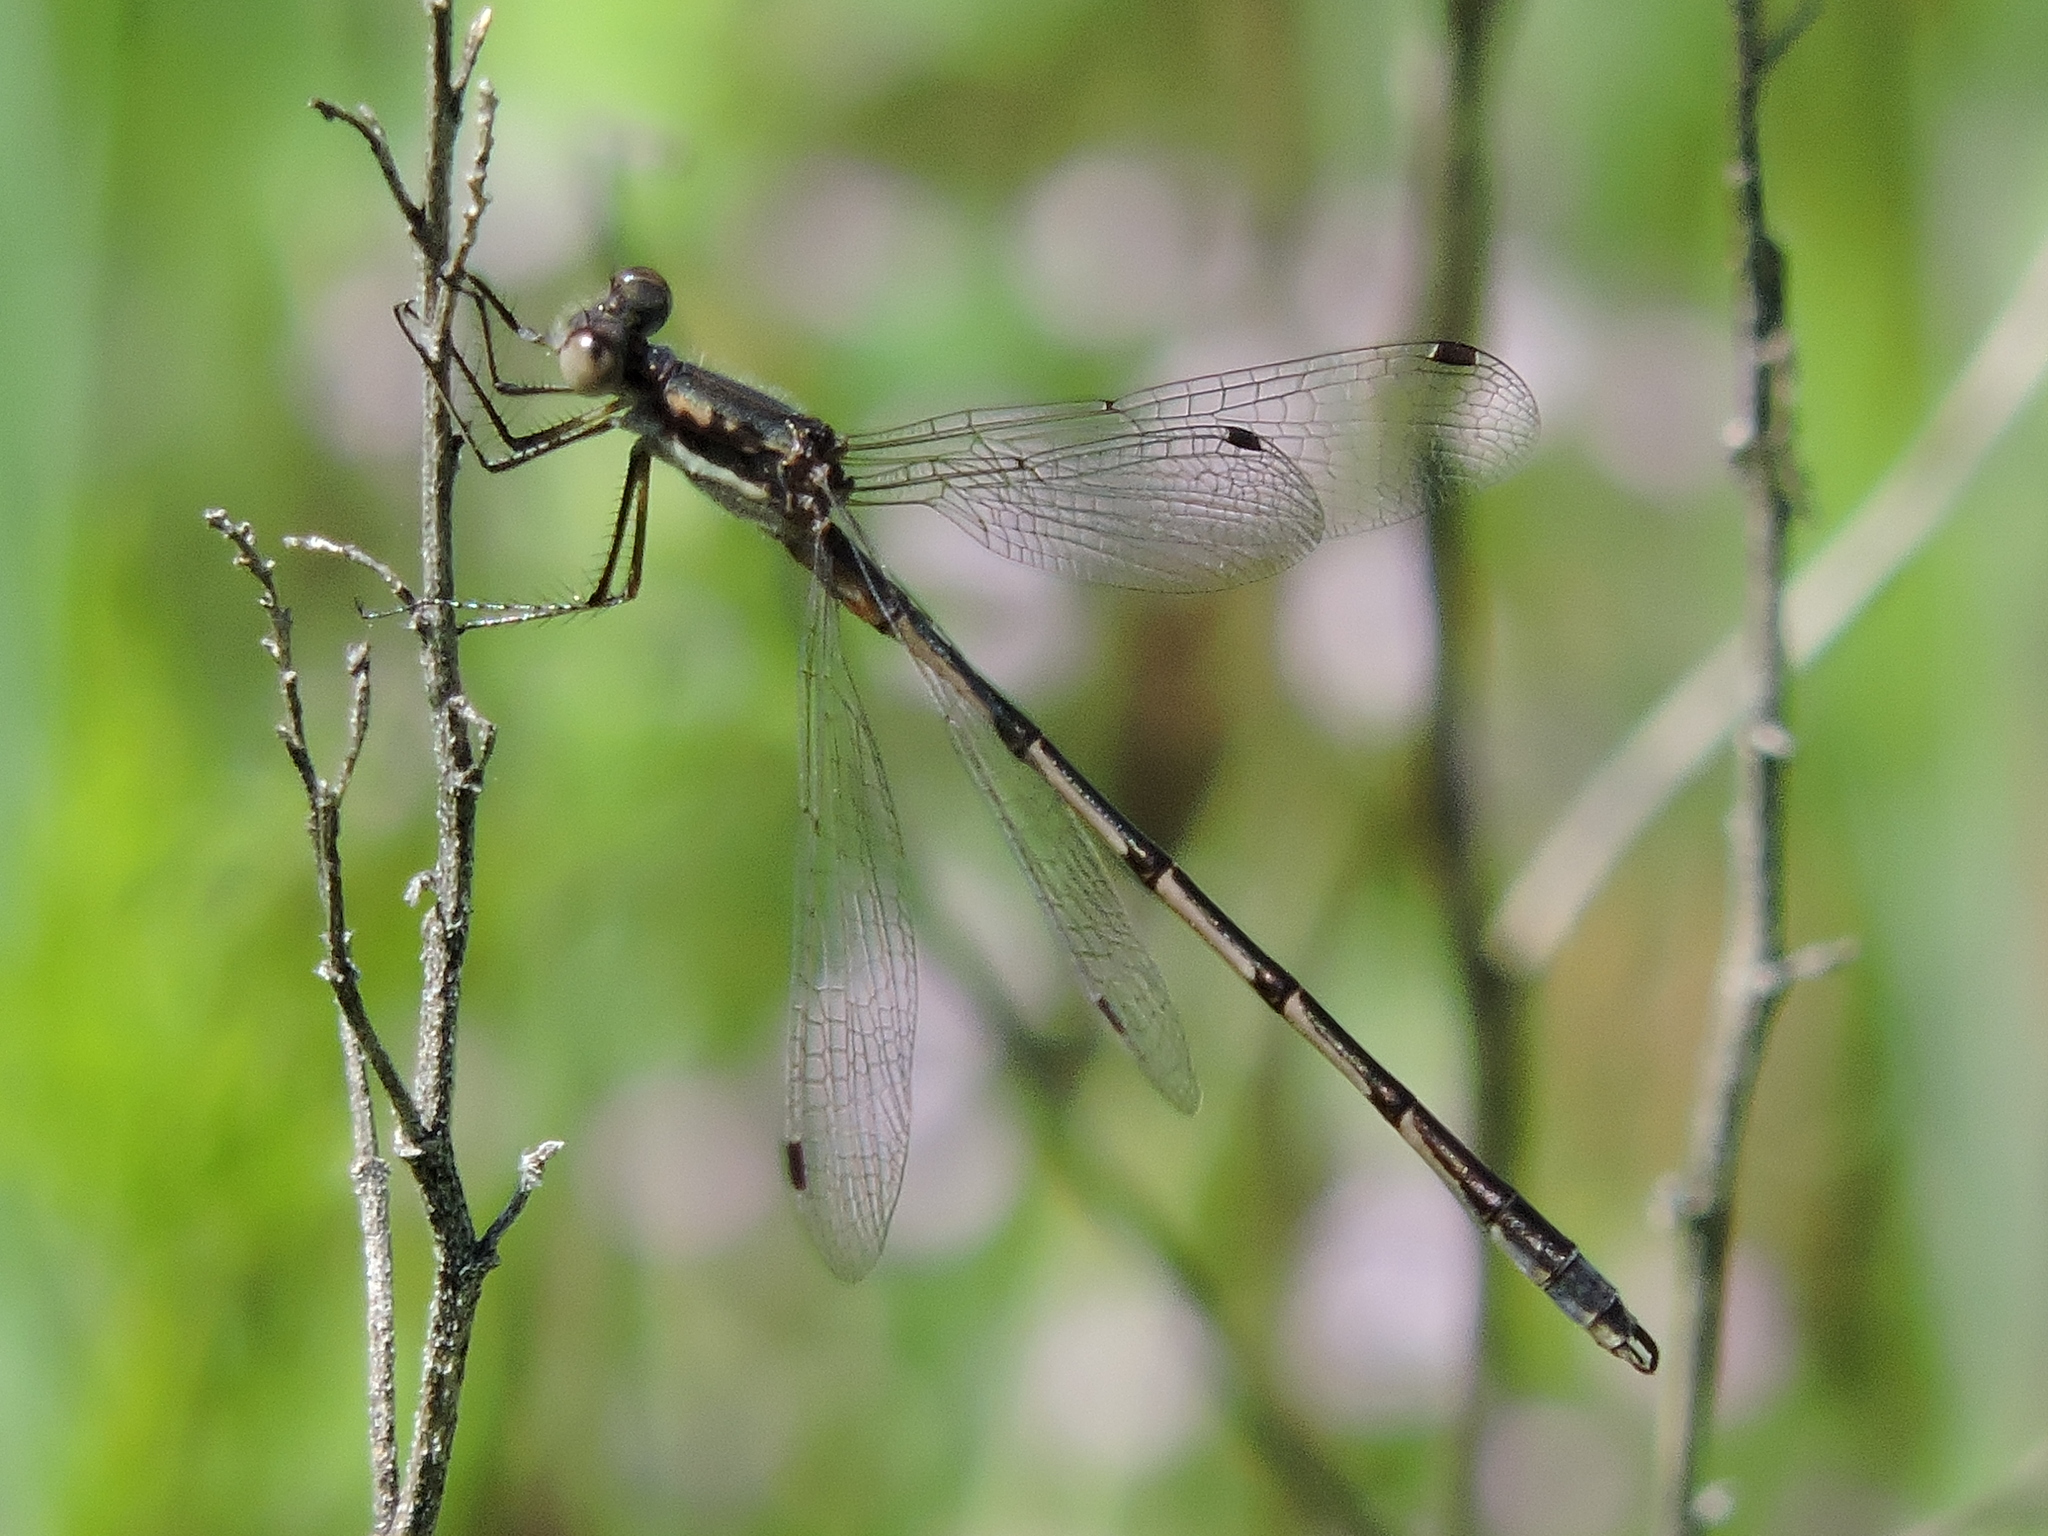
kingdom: Animalia
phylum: Arthropoda
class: Insecta
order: Odonata
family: Lestidae
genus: Lestes
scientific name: Lestes australis
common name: Southern spreadwing
